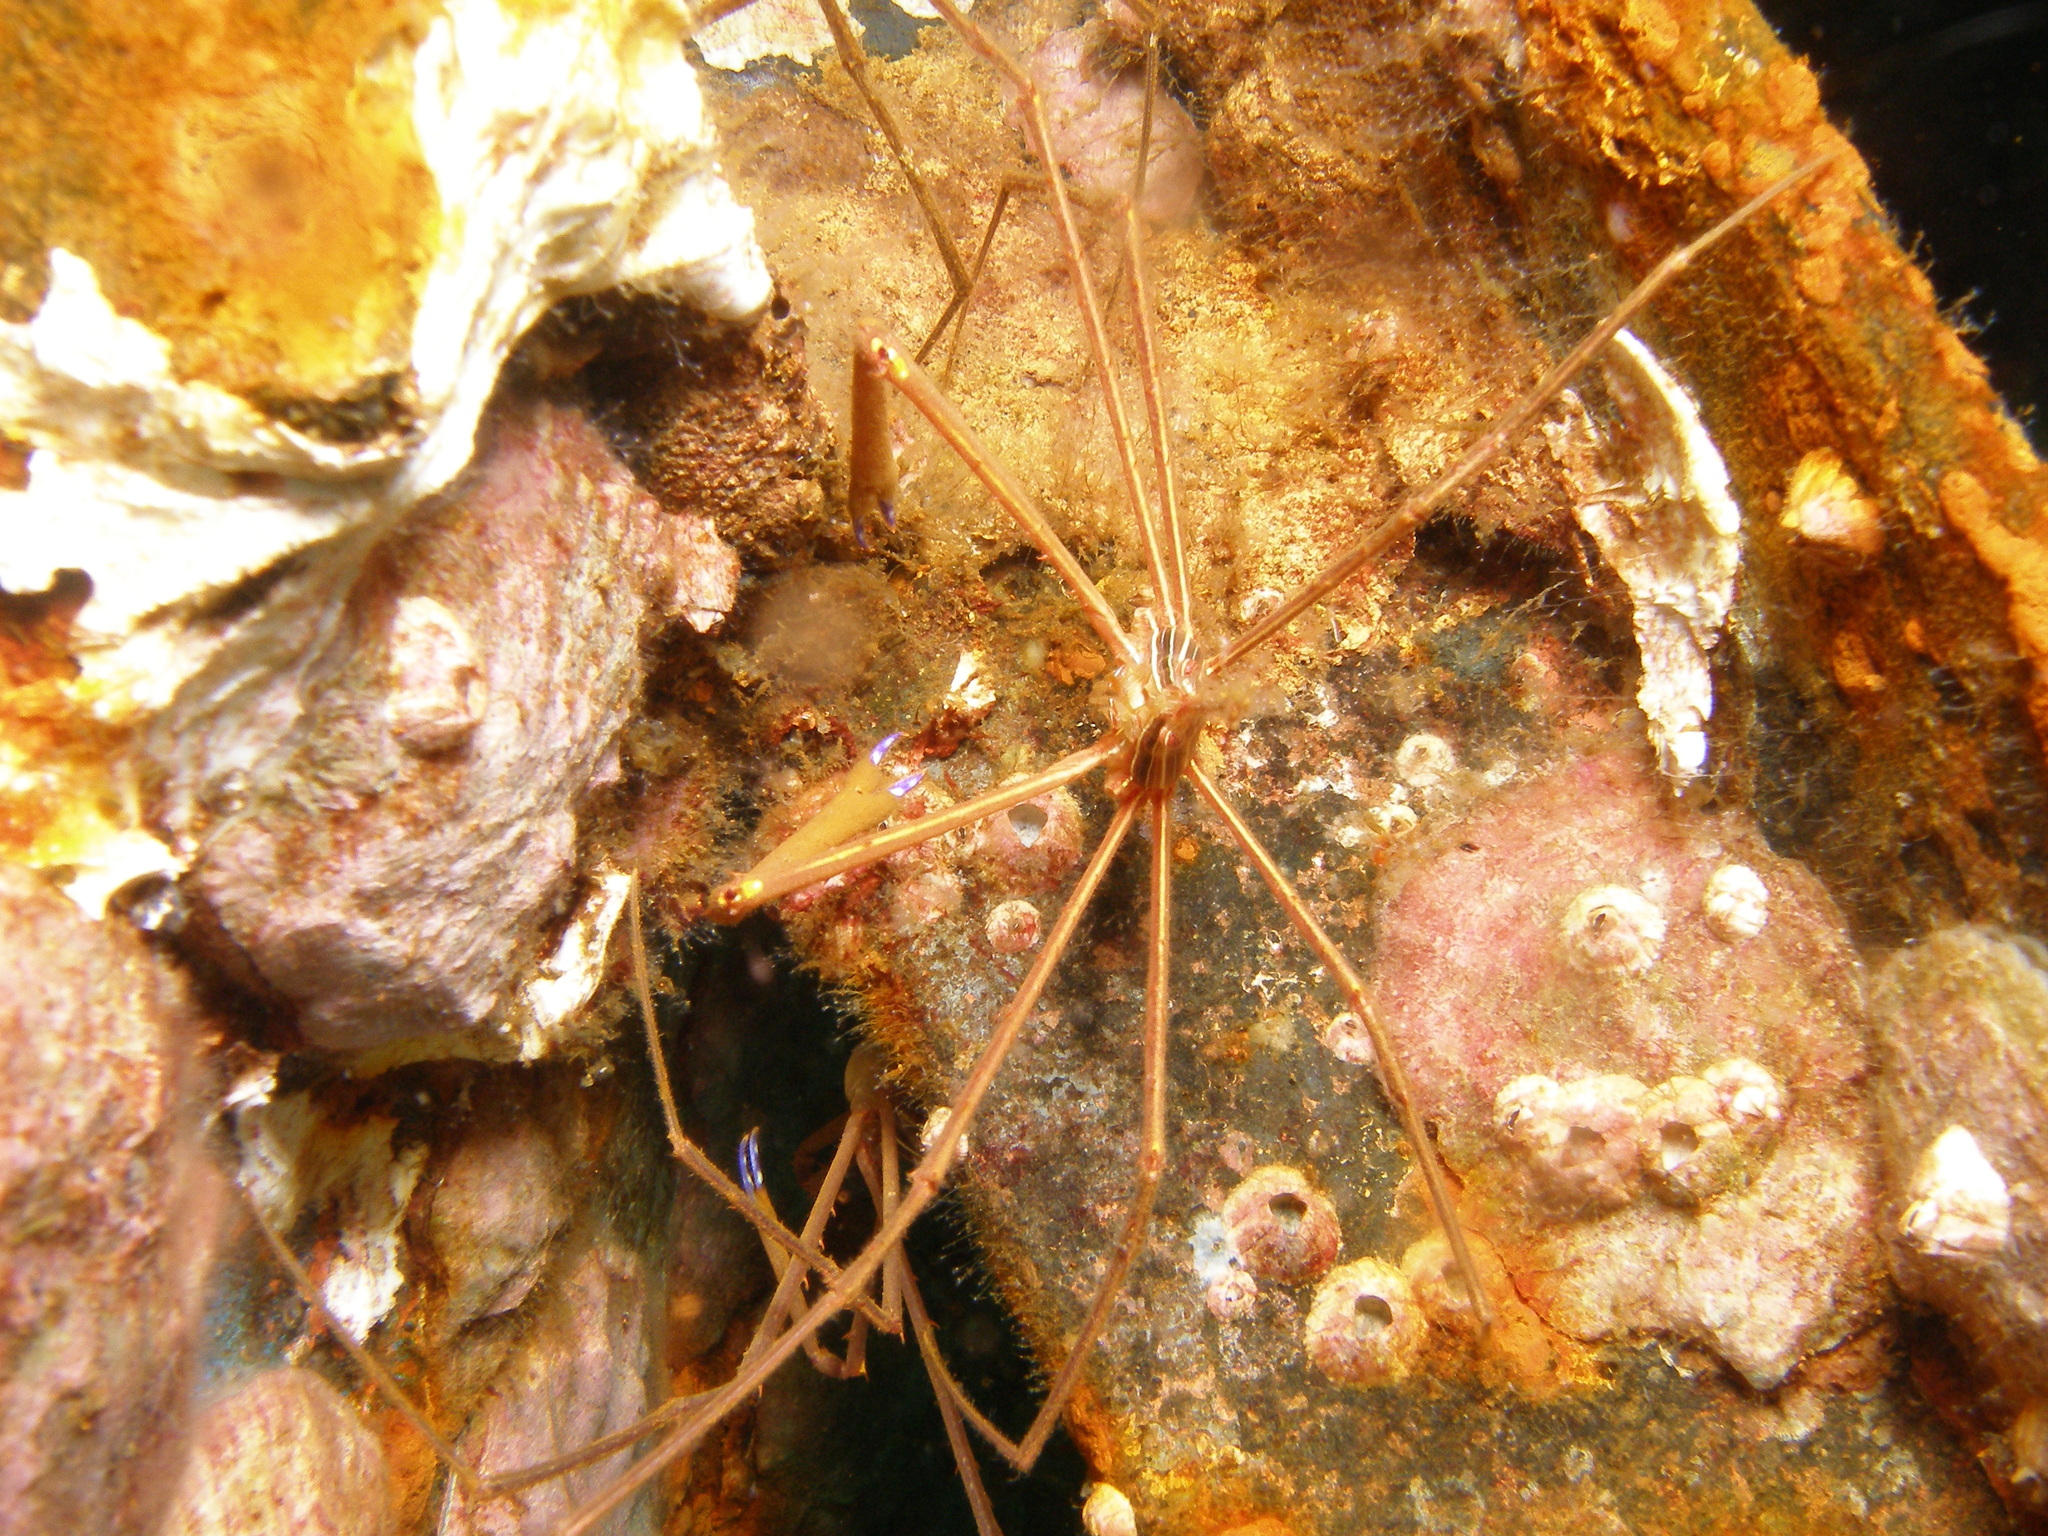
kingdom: Animalia
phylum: Arthropoda
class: Malacostraca
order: Decapoda
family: Inachoididae
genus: Stenorhynchus
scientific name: Stenorhynchus seticornis
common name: Arrow crab
